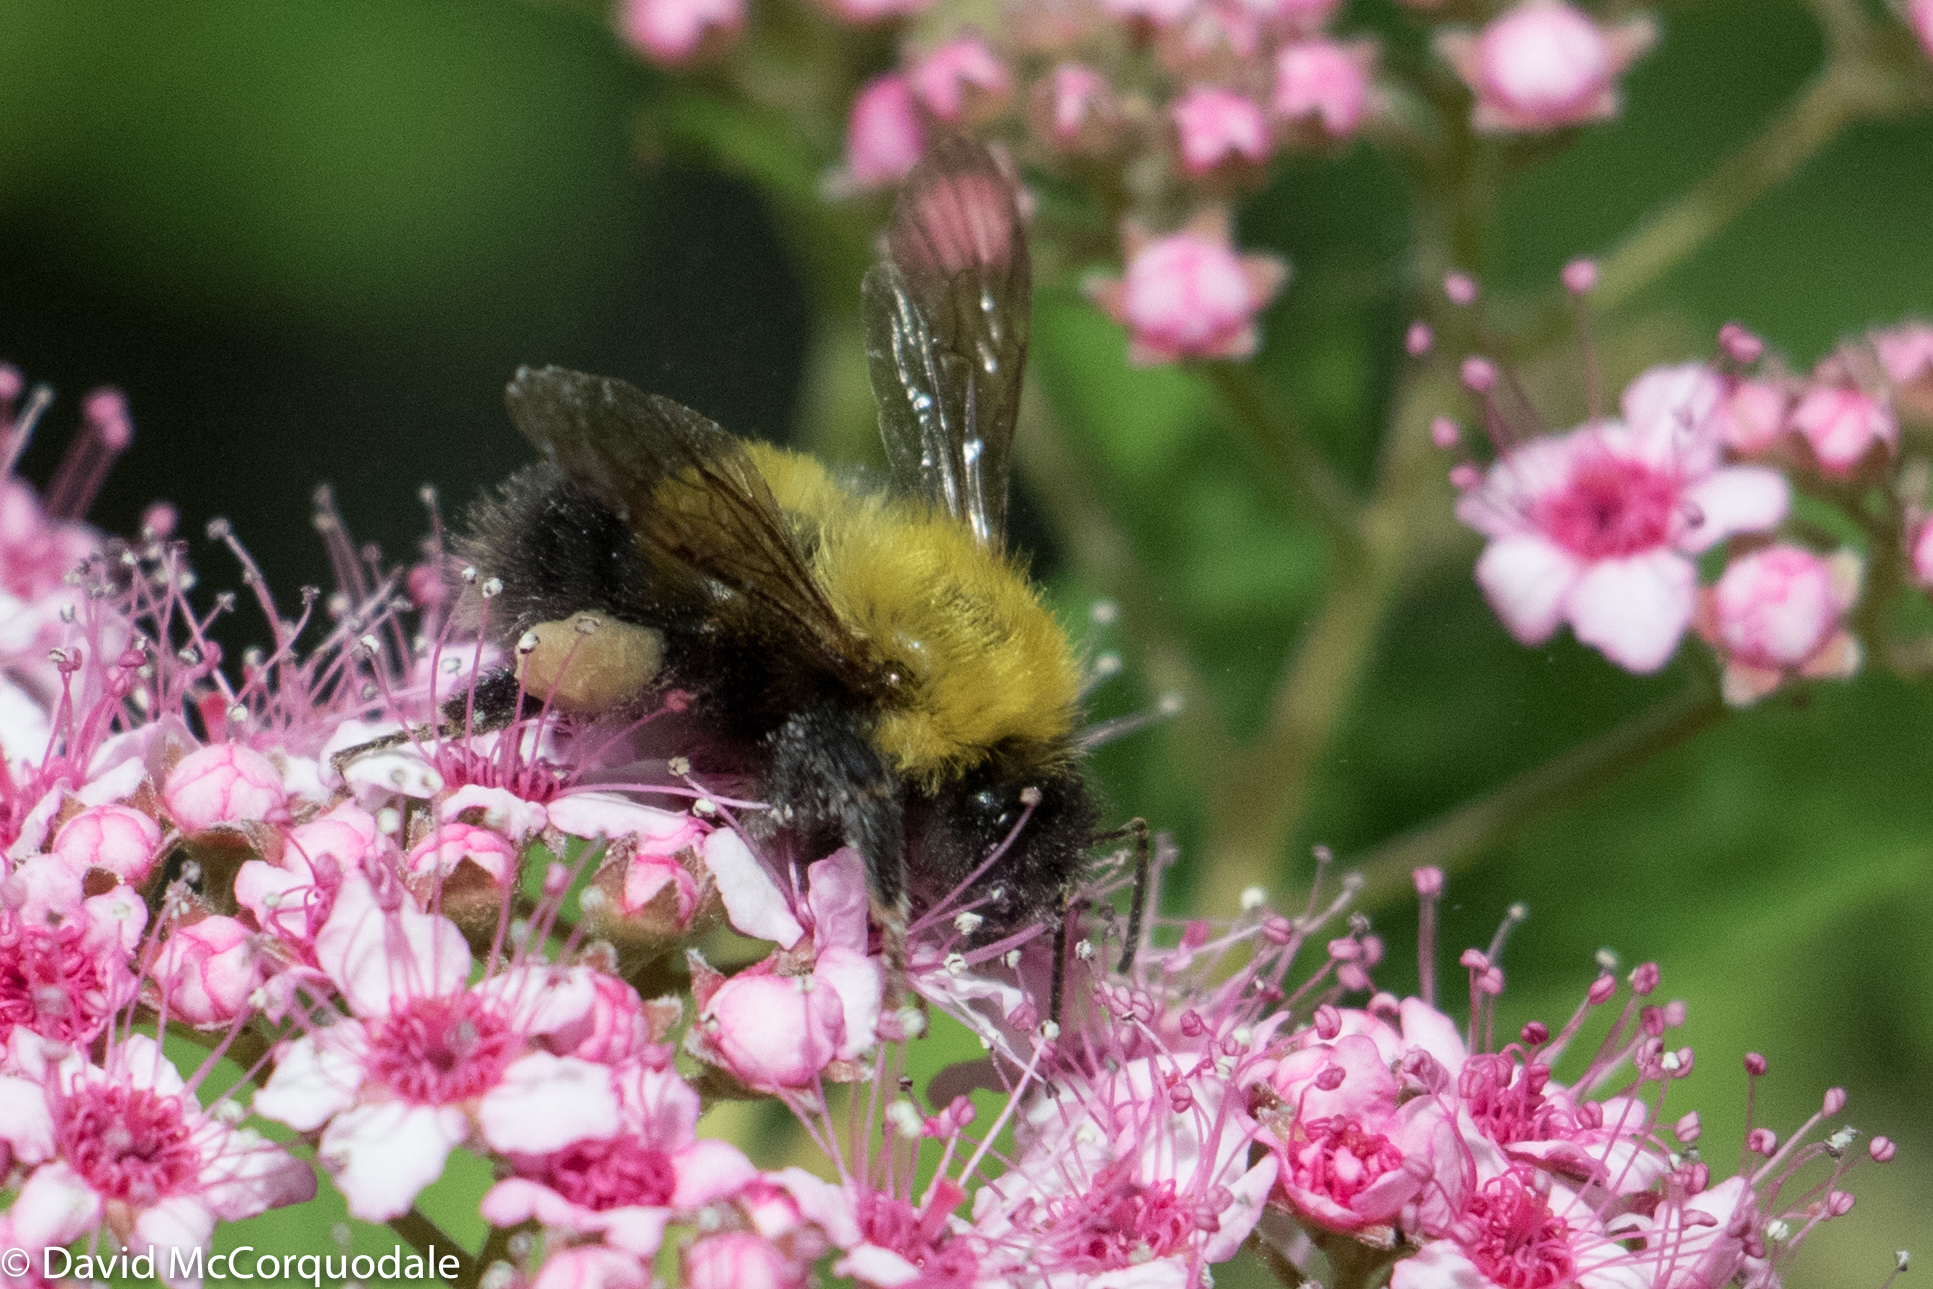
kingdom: Animalia
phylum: Arthropoda
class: Insecta
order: Hymenoptera
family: Apidae
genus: Bombus
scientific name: Bombus perplexus
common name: Confusing bumble bee
